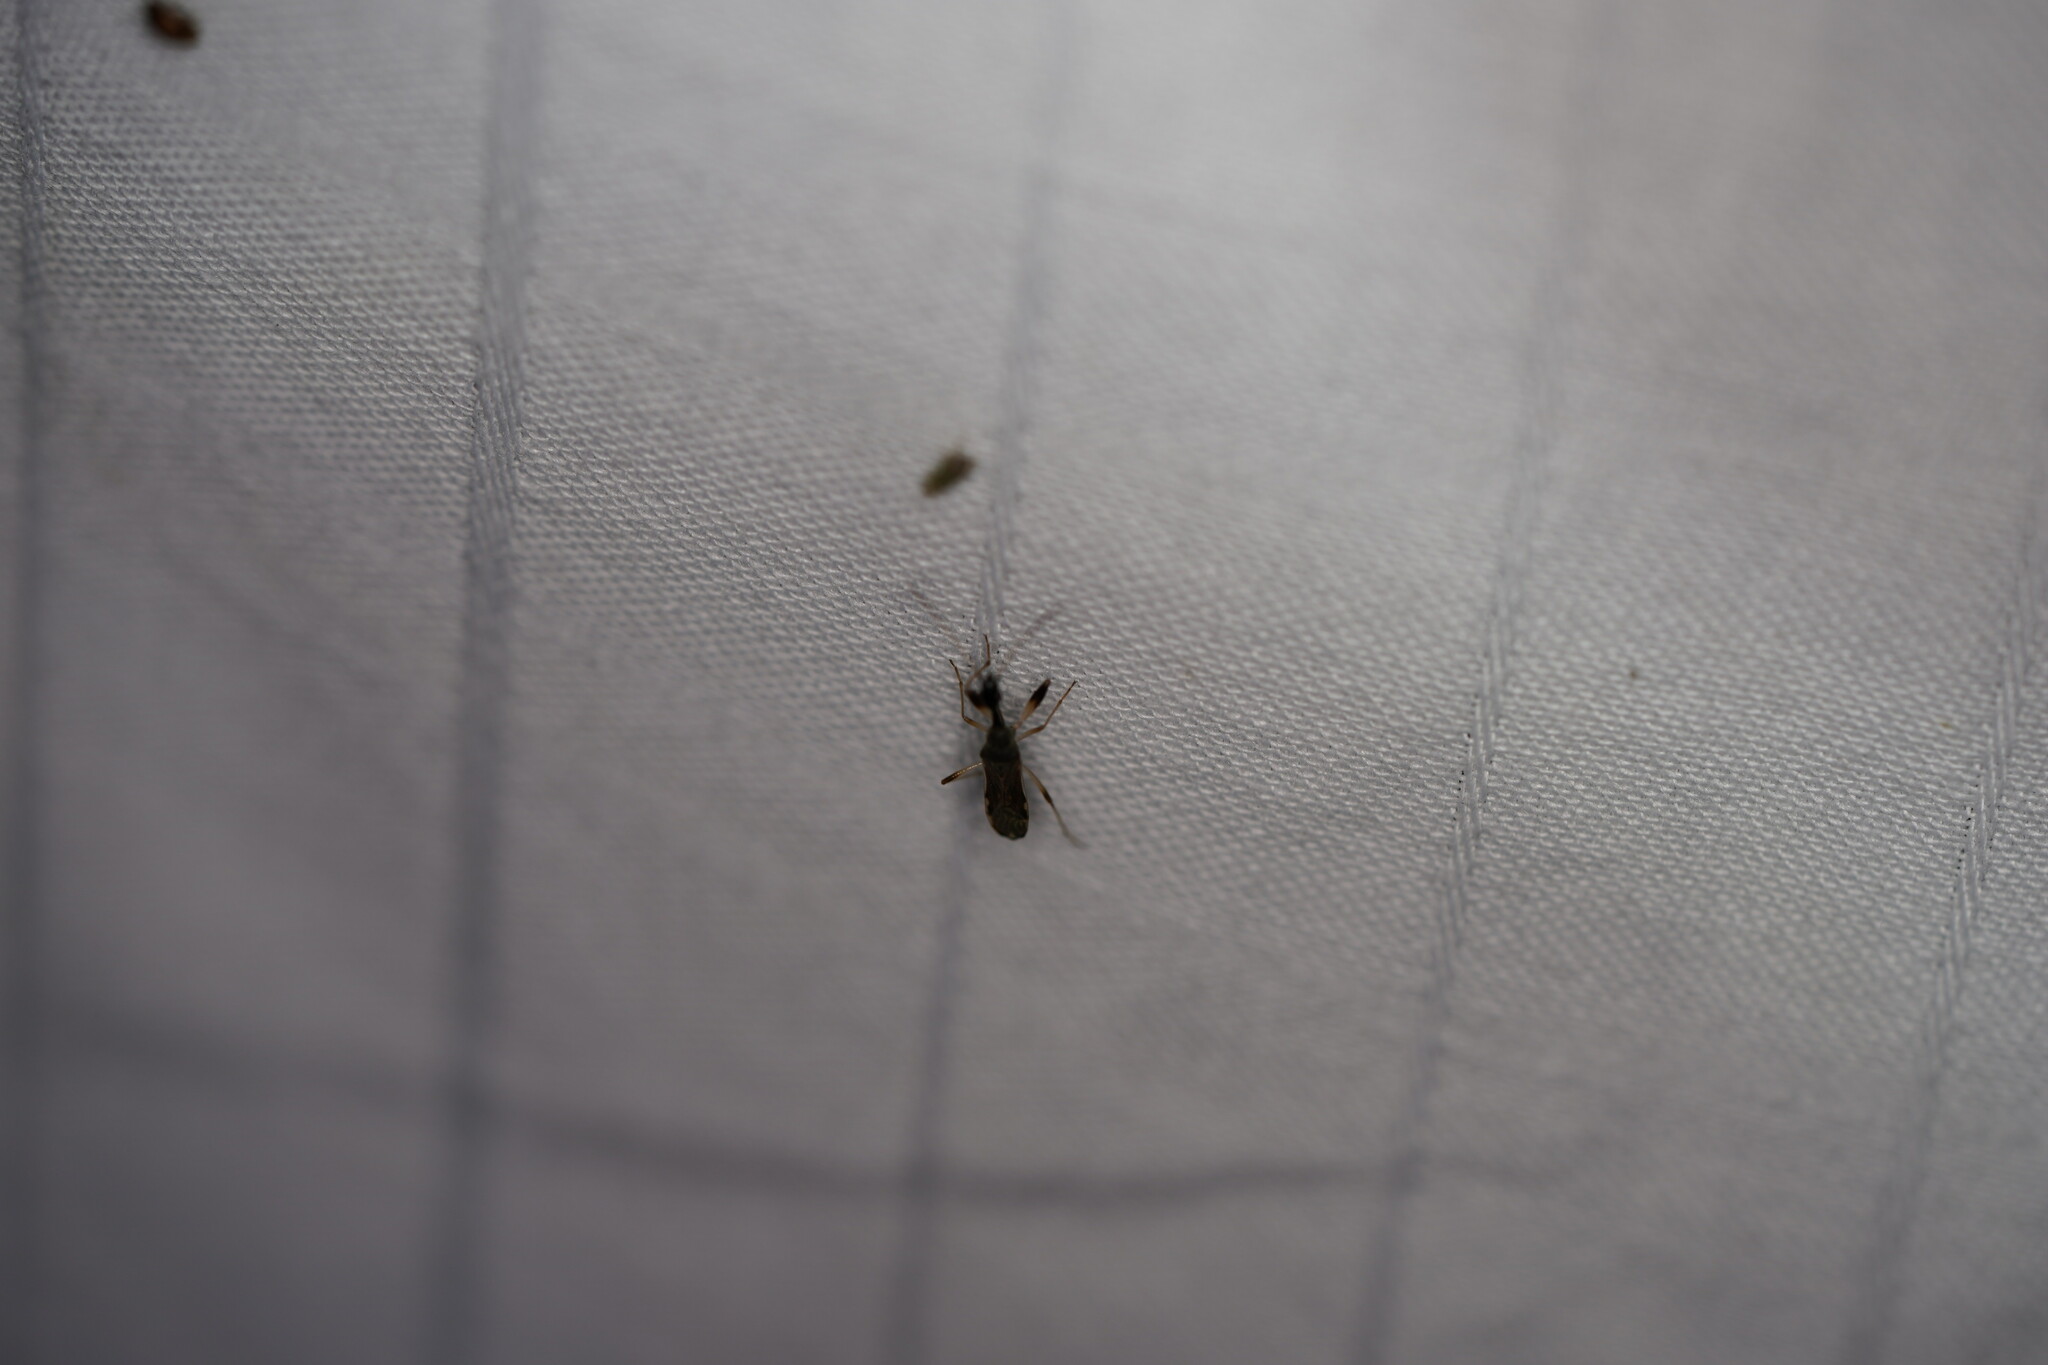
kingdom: Animalia
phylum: Arthropoda
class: Insecta
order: Hemiptera
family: Rhyparochromidae
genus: Myodocha
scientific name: Myodocha serripes
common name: Long-necked seed bug
